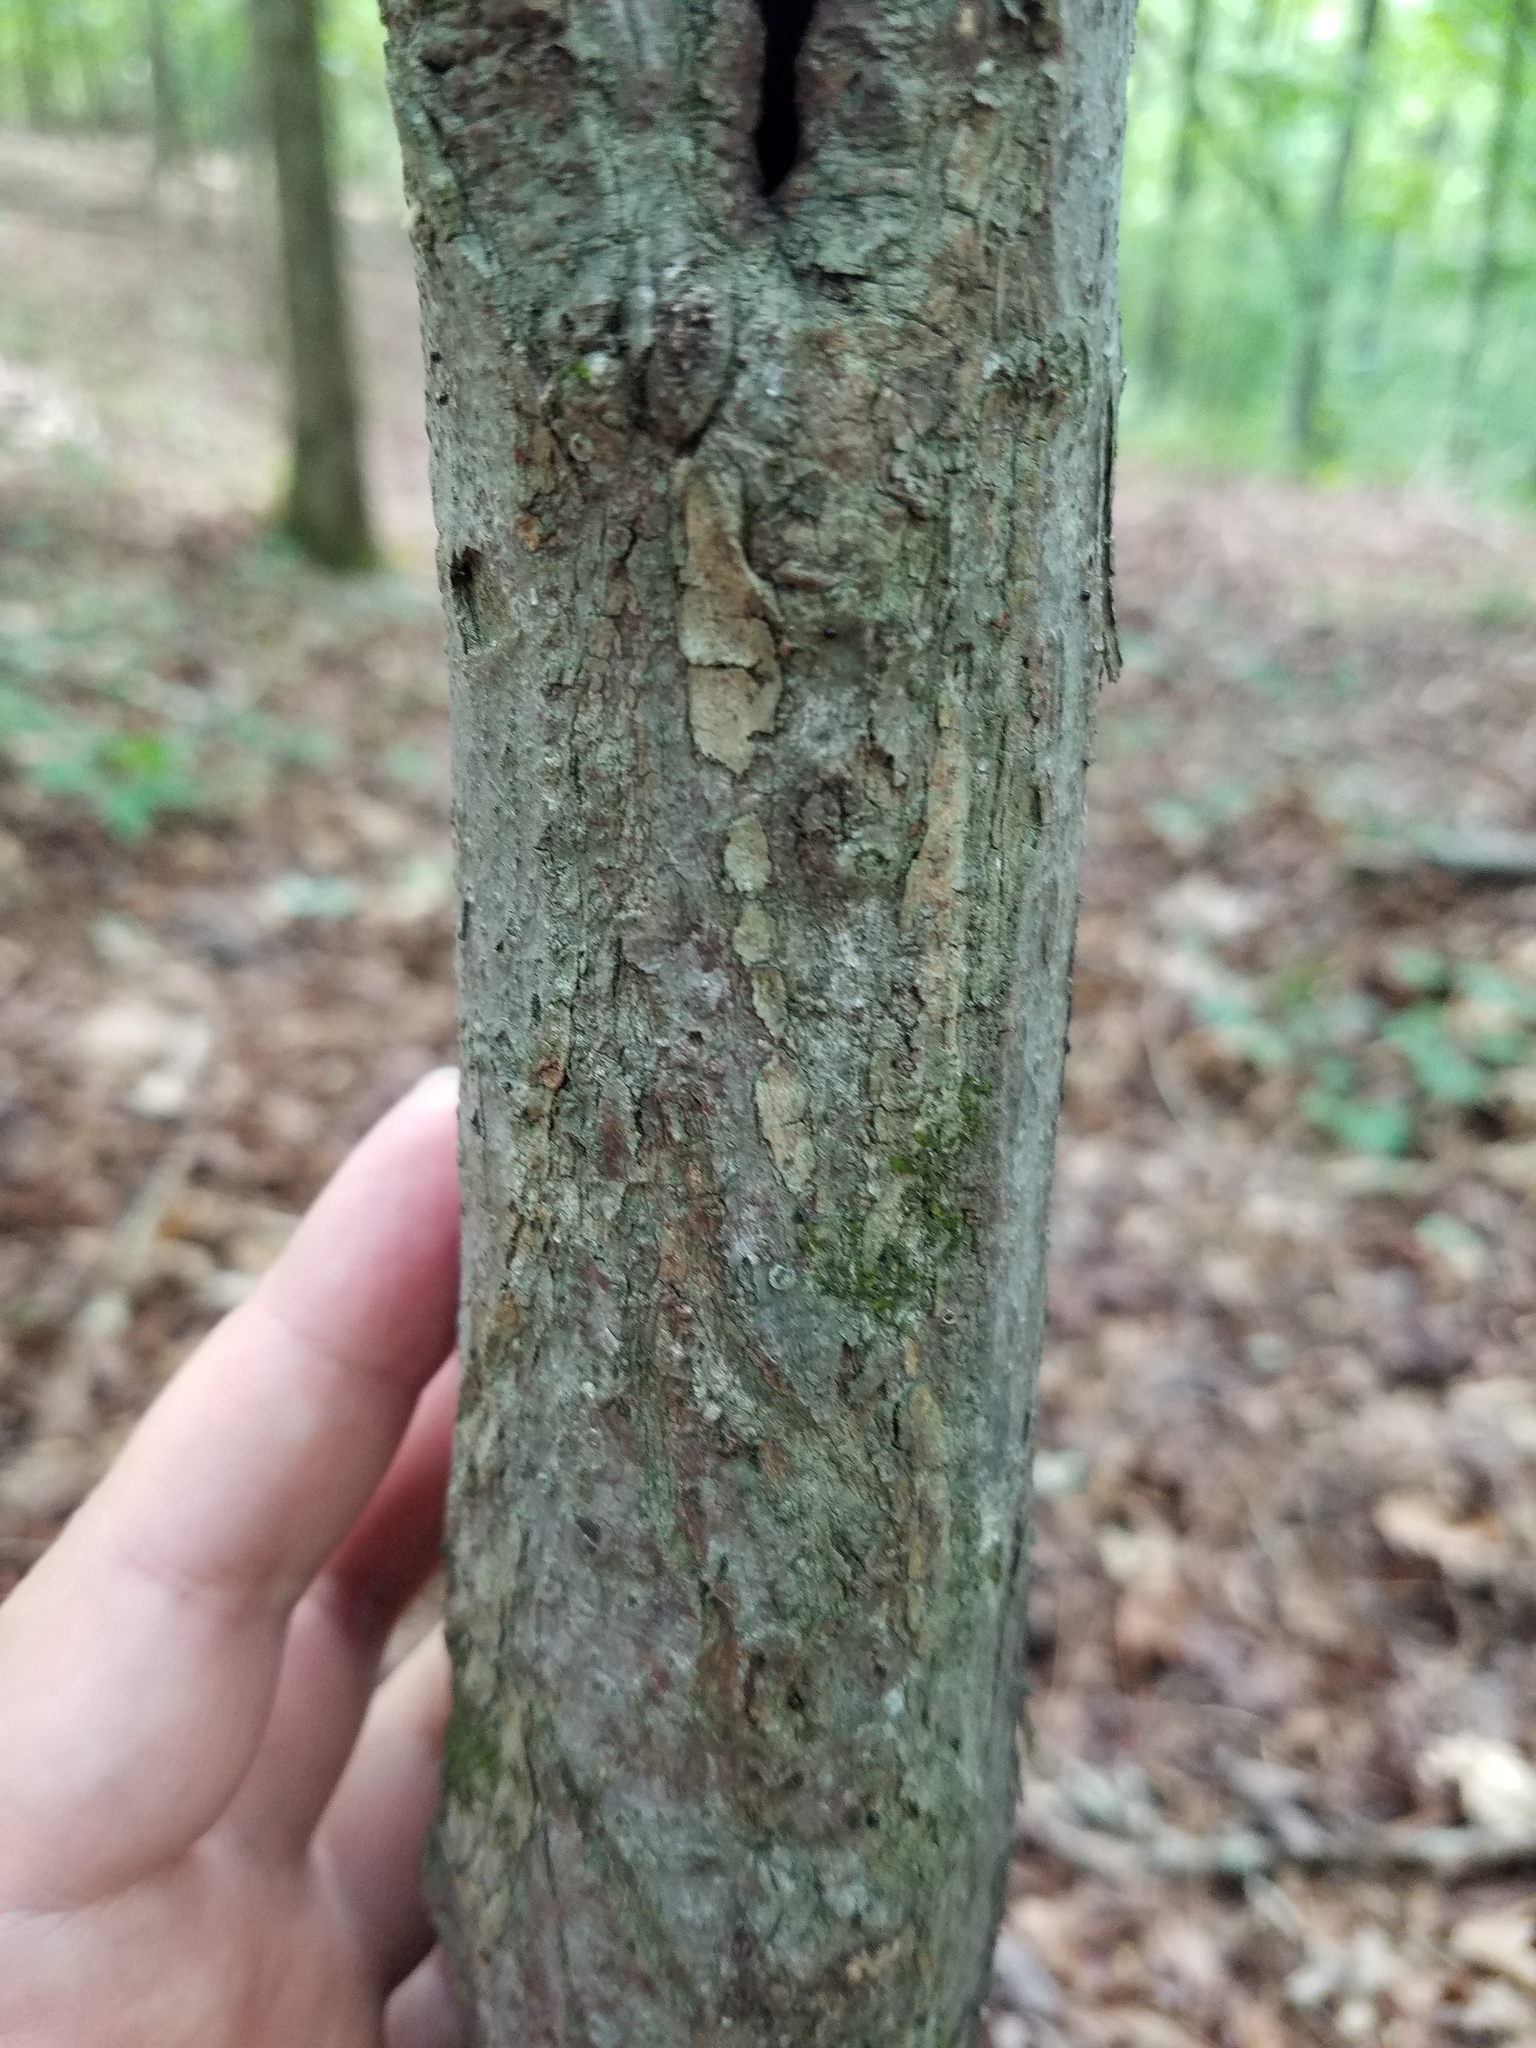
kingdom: Plantae
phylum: Tracheophyta
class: Magnoliopsida
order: Sapindales
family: Sapindaceae
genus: Acer
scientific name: Acer rubrum
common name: Red maple
